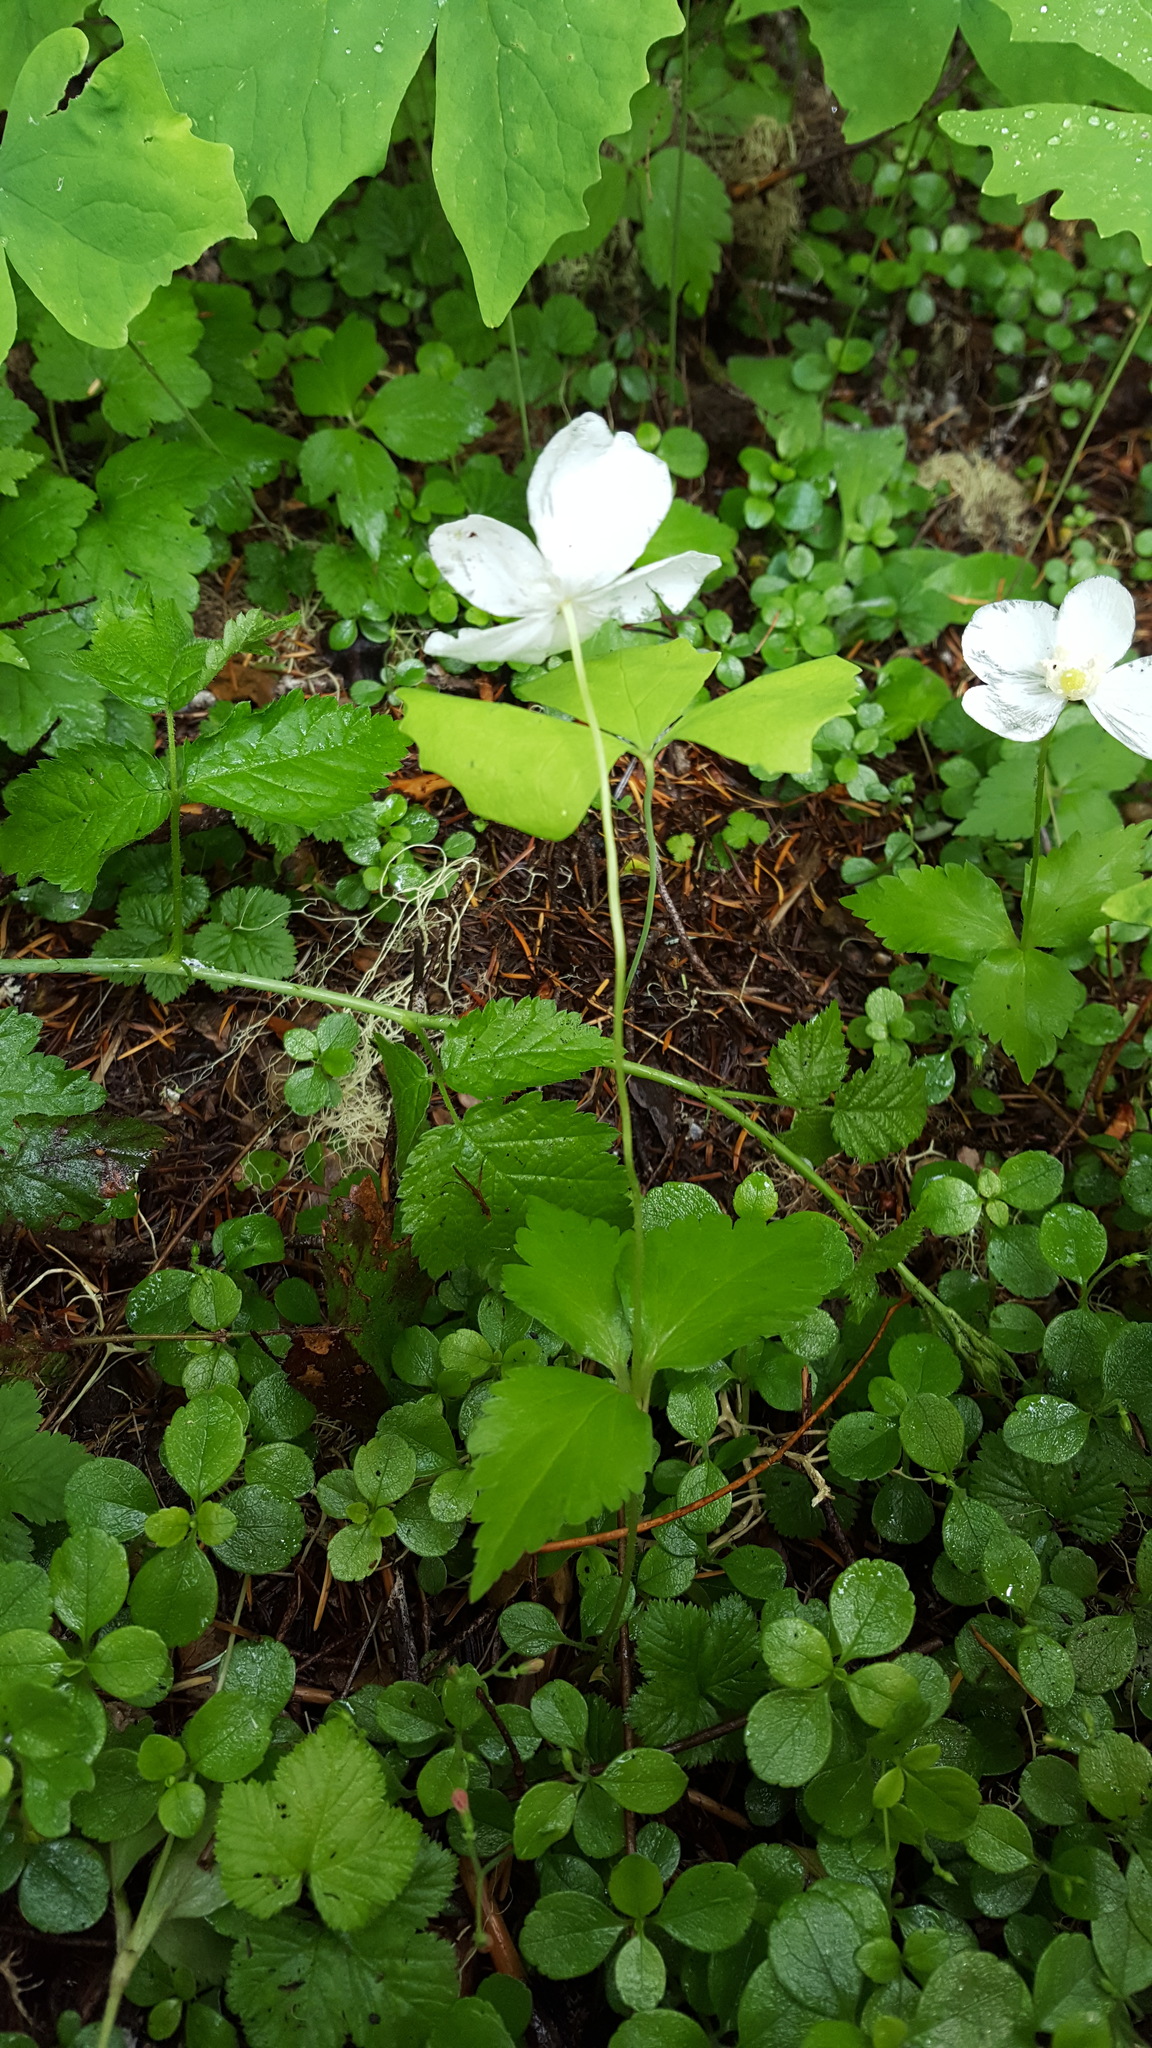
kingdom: Plantae
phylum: Tracheophyta
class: Magnoliopsida
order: Ranunculales
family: Ranunculaceae
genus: Anemonastrum
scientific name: Anemonastrum deltoideum
